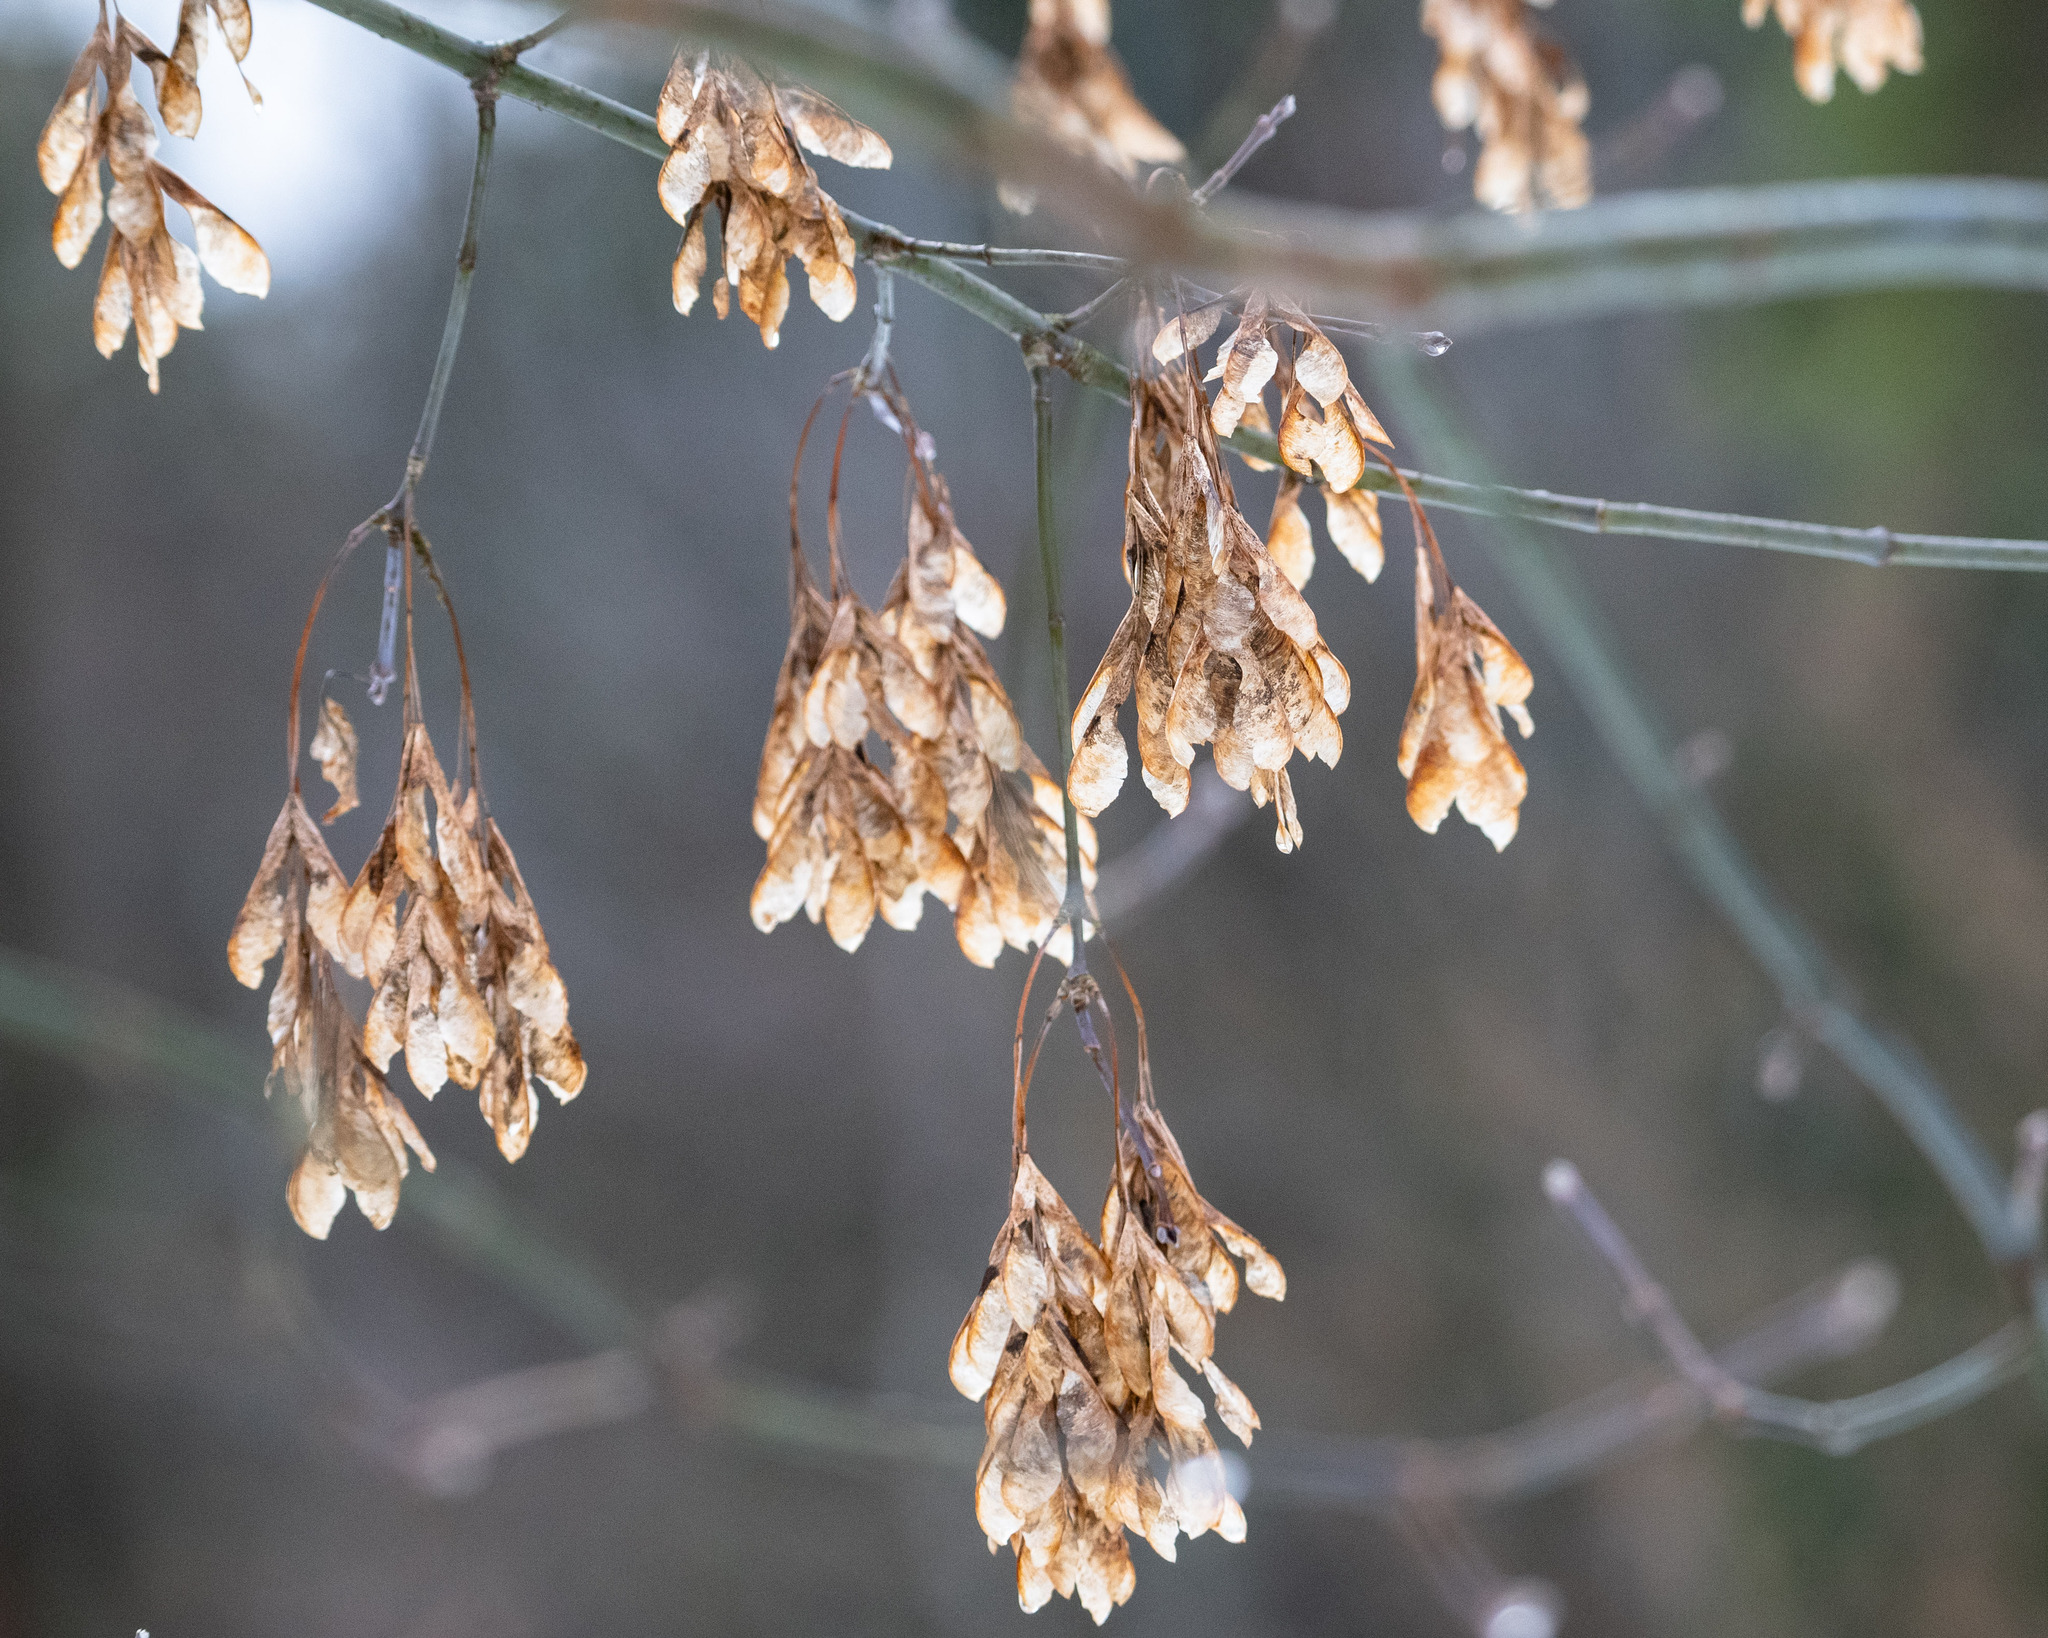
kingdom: Plantae
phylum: Tracheophyta
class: Magnoliopsida
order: Sapindales
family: Sapindaceae
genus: Acer
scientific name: Acer negundo
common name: Ashleaf maple
